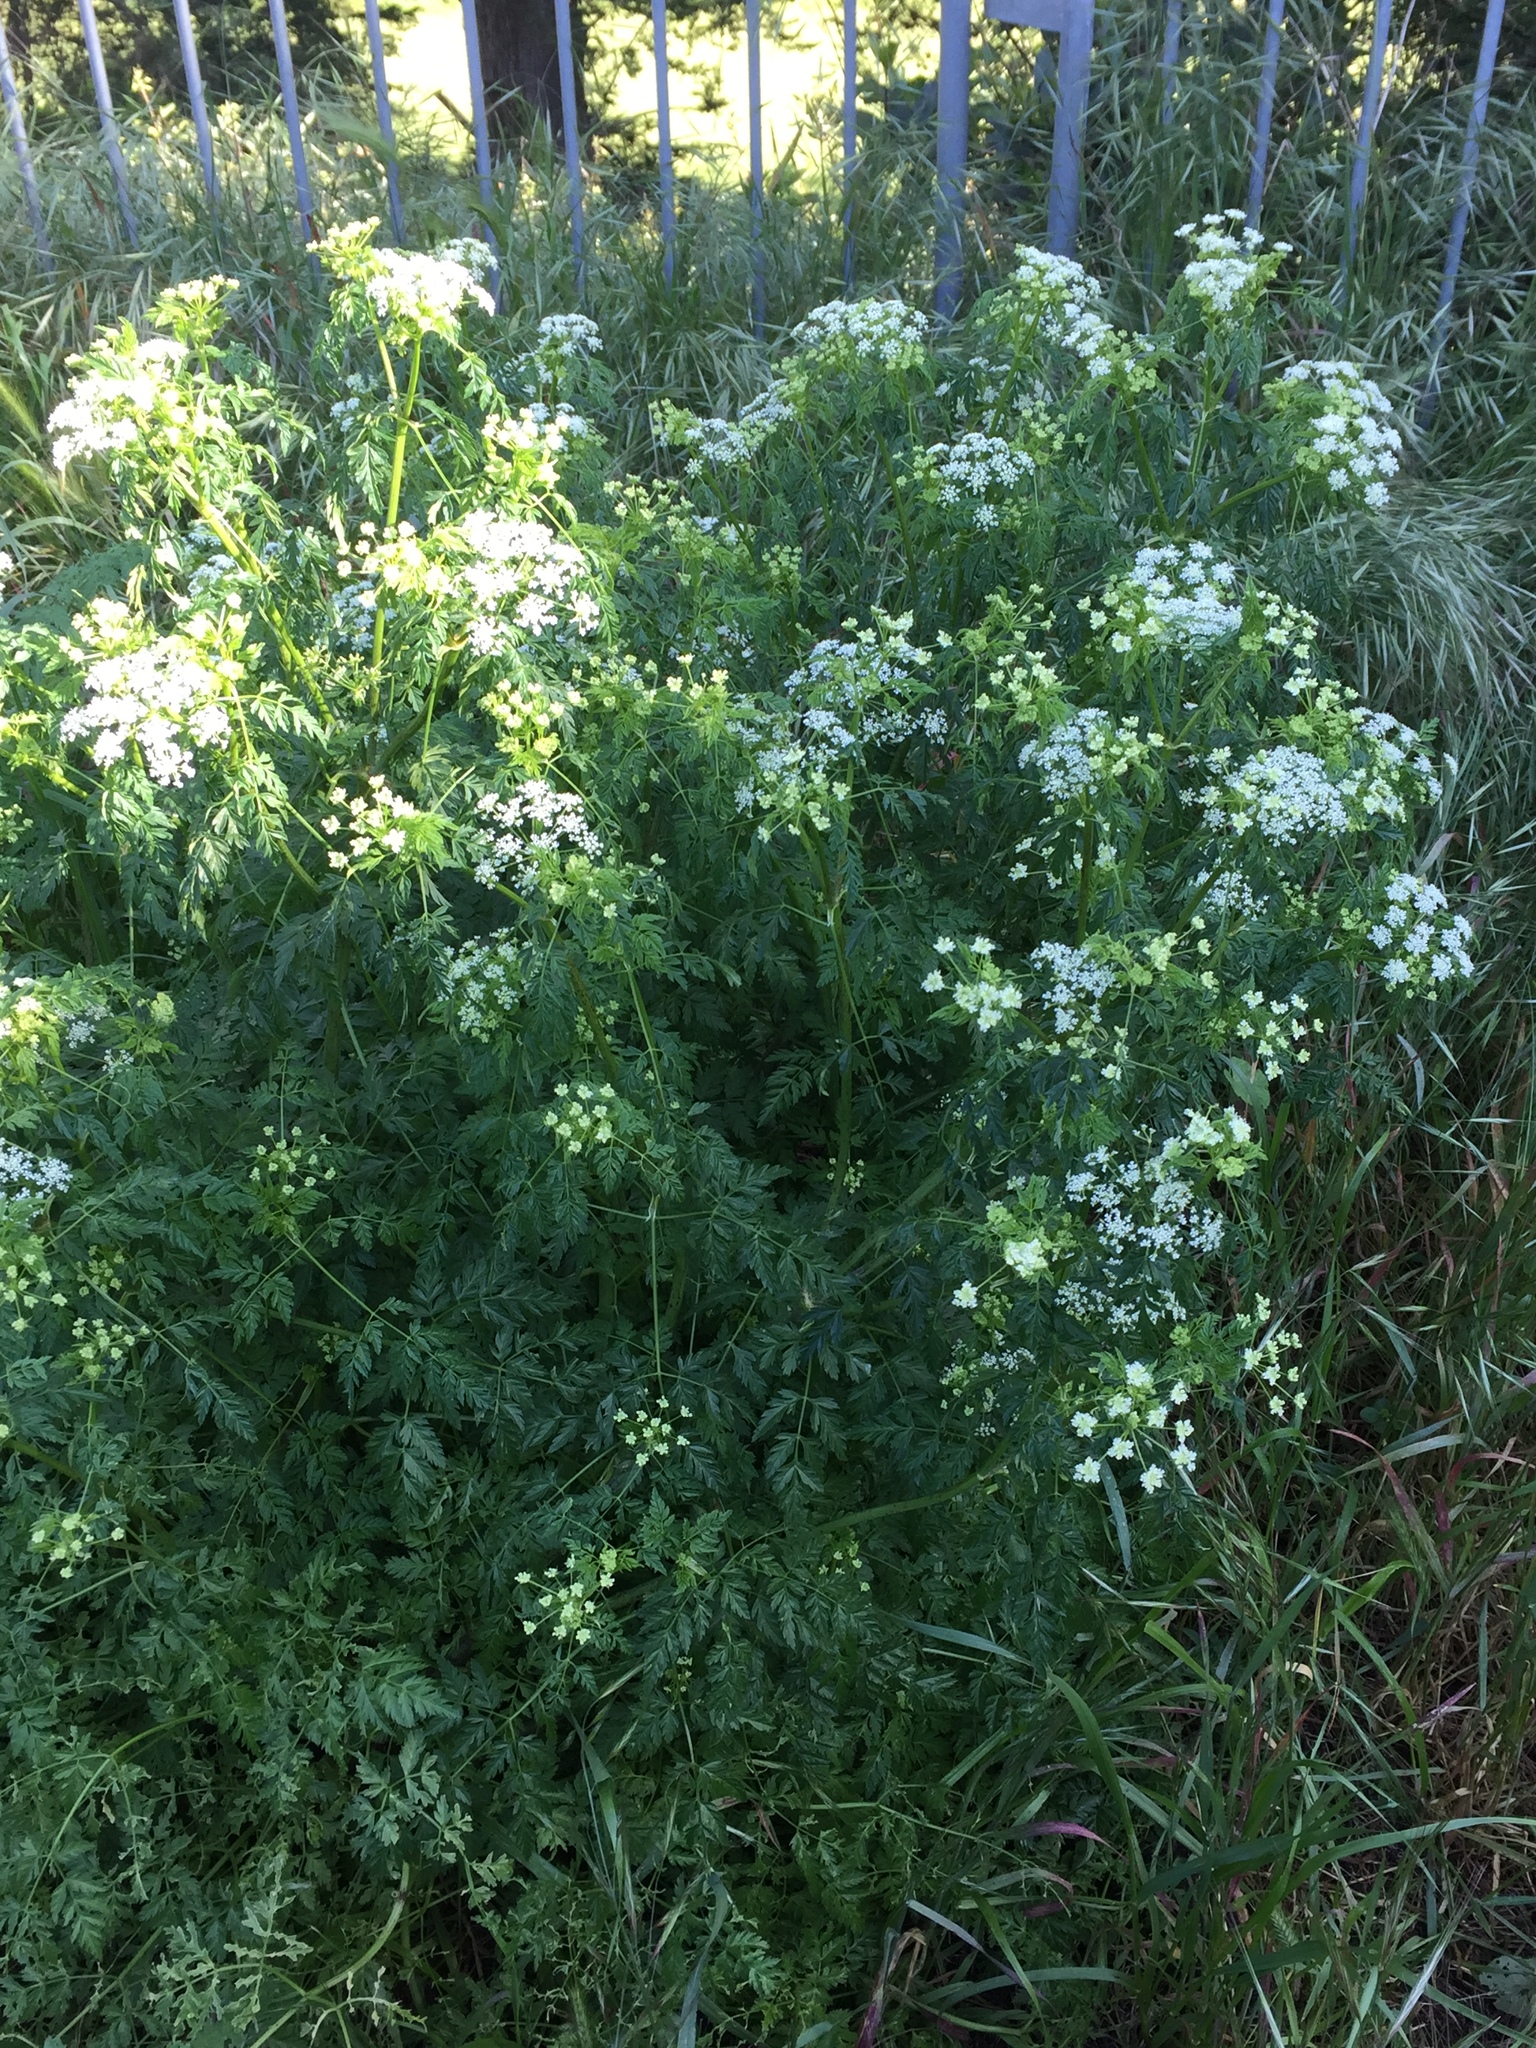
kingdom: Plantae
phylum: Tracheophyta
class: Magnoliopsida
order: Apiales
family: Apiaceae
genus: Conium
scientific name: Conium maculatum
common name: Hemlock
